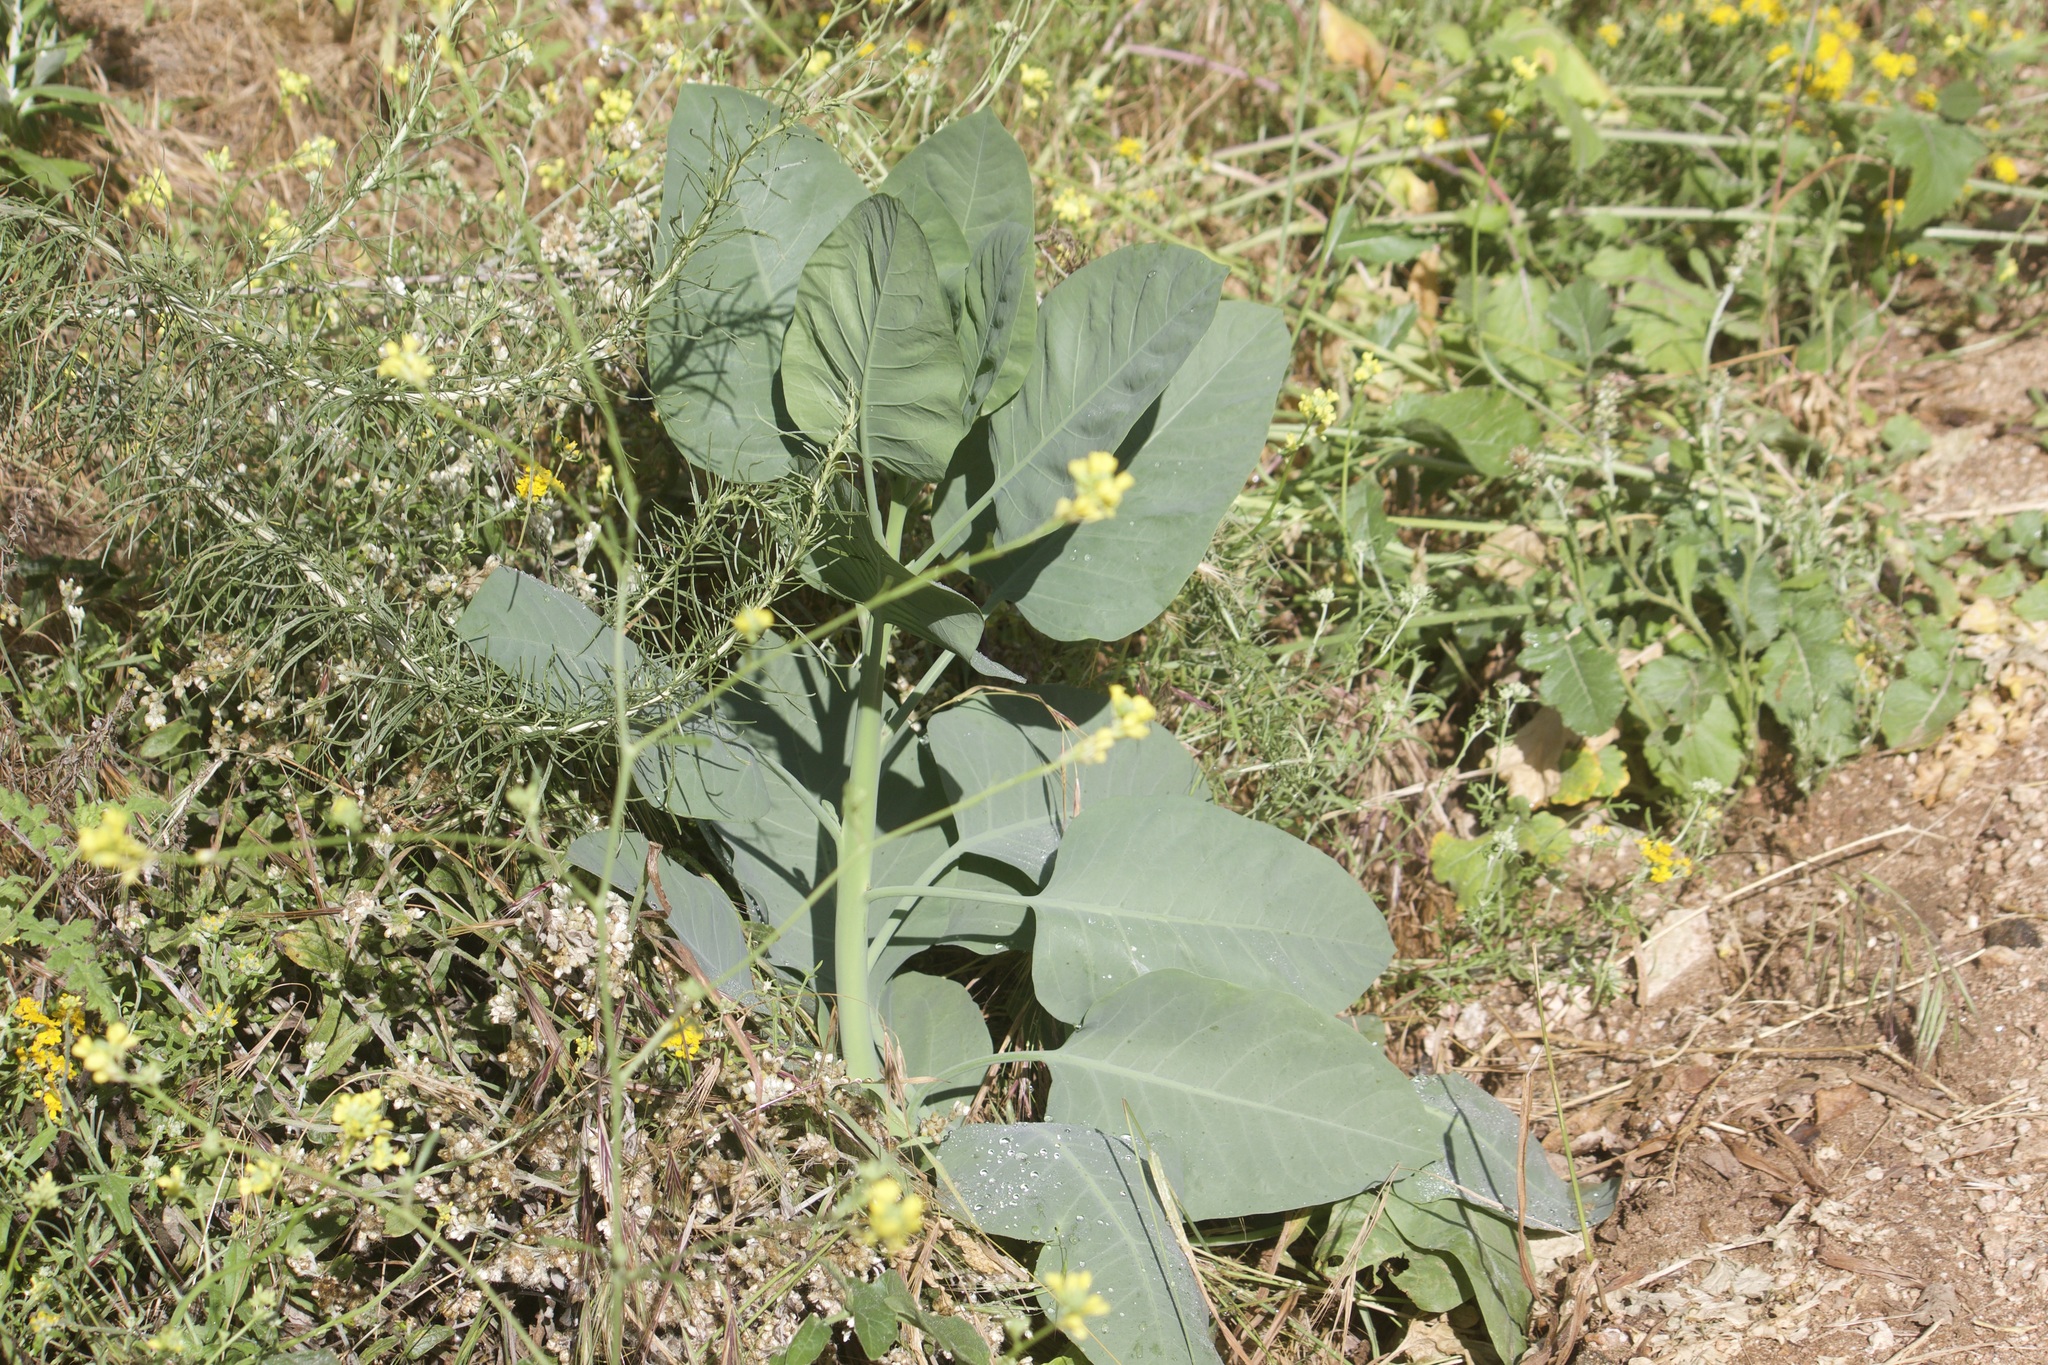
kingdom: Plantae
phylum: Tracheophyta
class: Magnoliopsida
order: Solanales
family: Solanaceae
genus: Nicotiana
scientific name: Nicotiana glauca
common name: Tree tobacco
